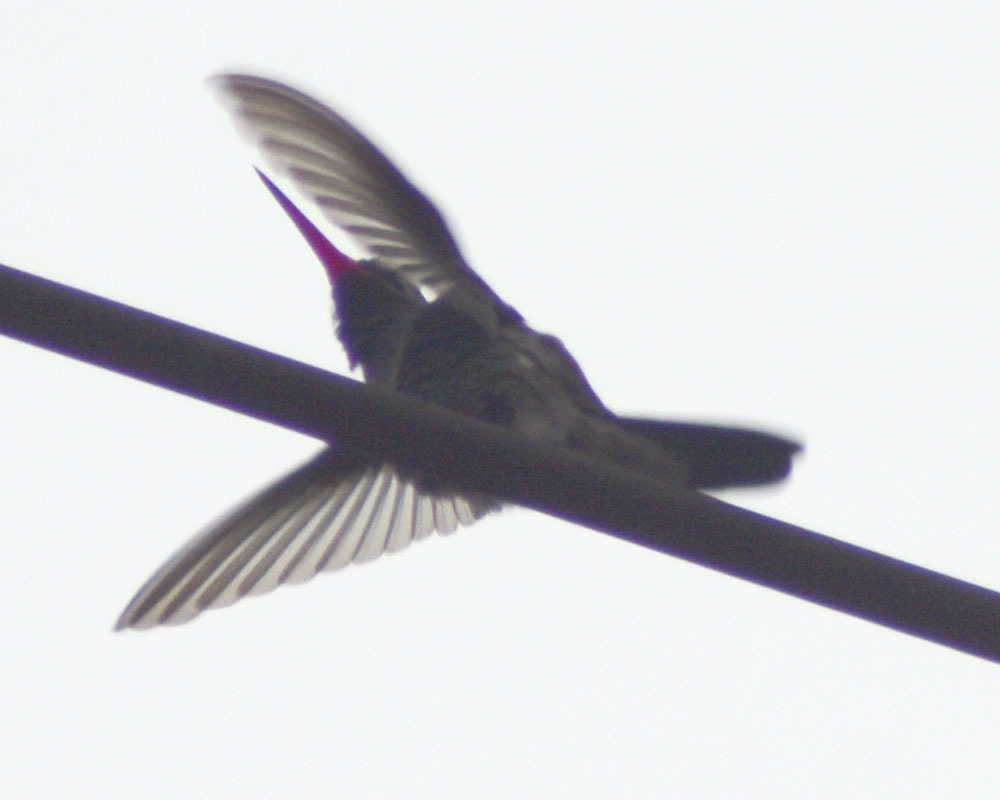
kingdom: Animalia
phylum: Chordata
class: Aves
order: Apodiformes
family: Trochilidae
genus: Cynanthus
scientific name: Cynanthus latirostris
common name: Broad-billed hummingbird
